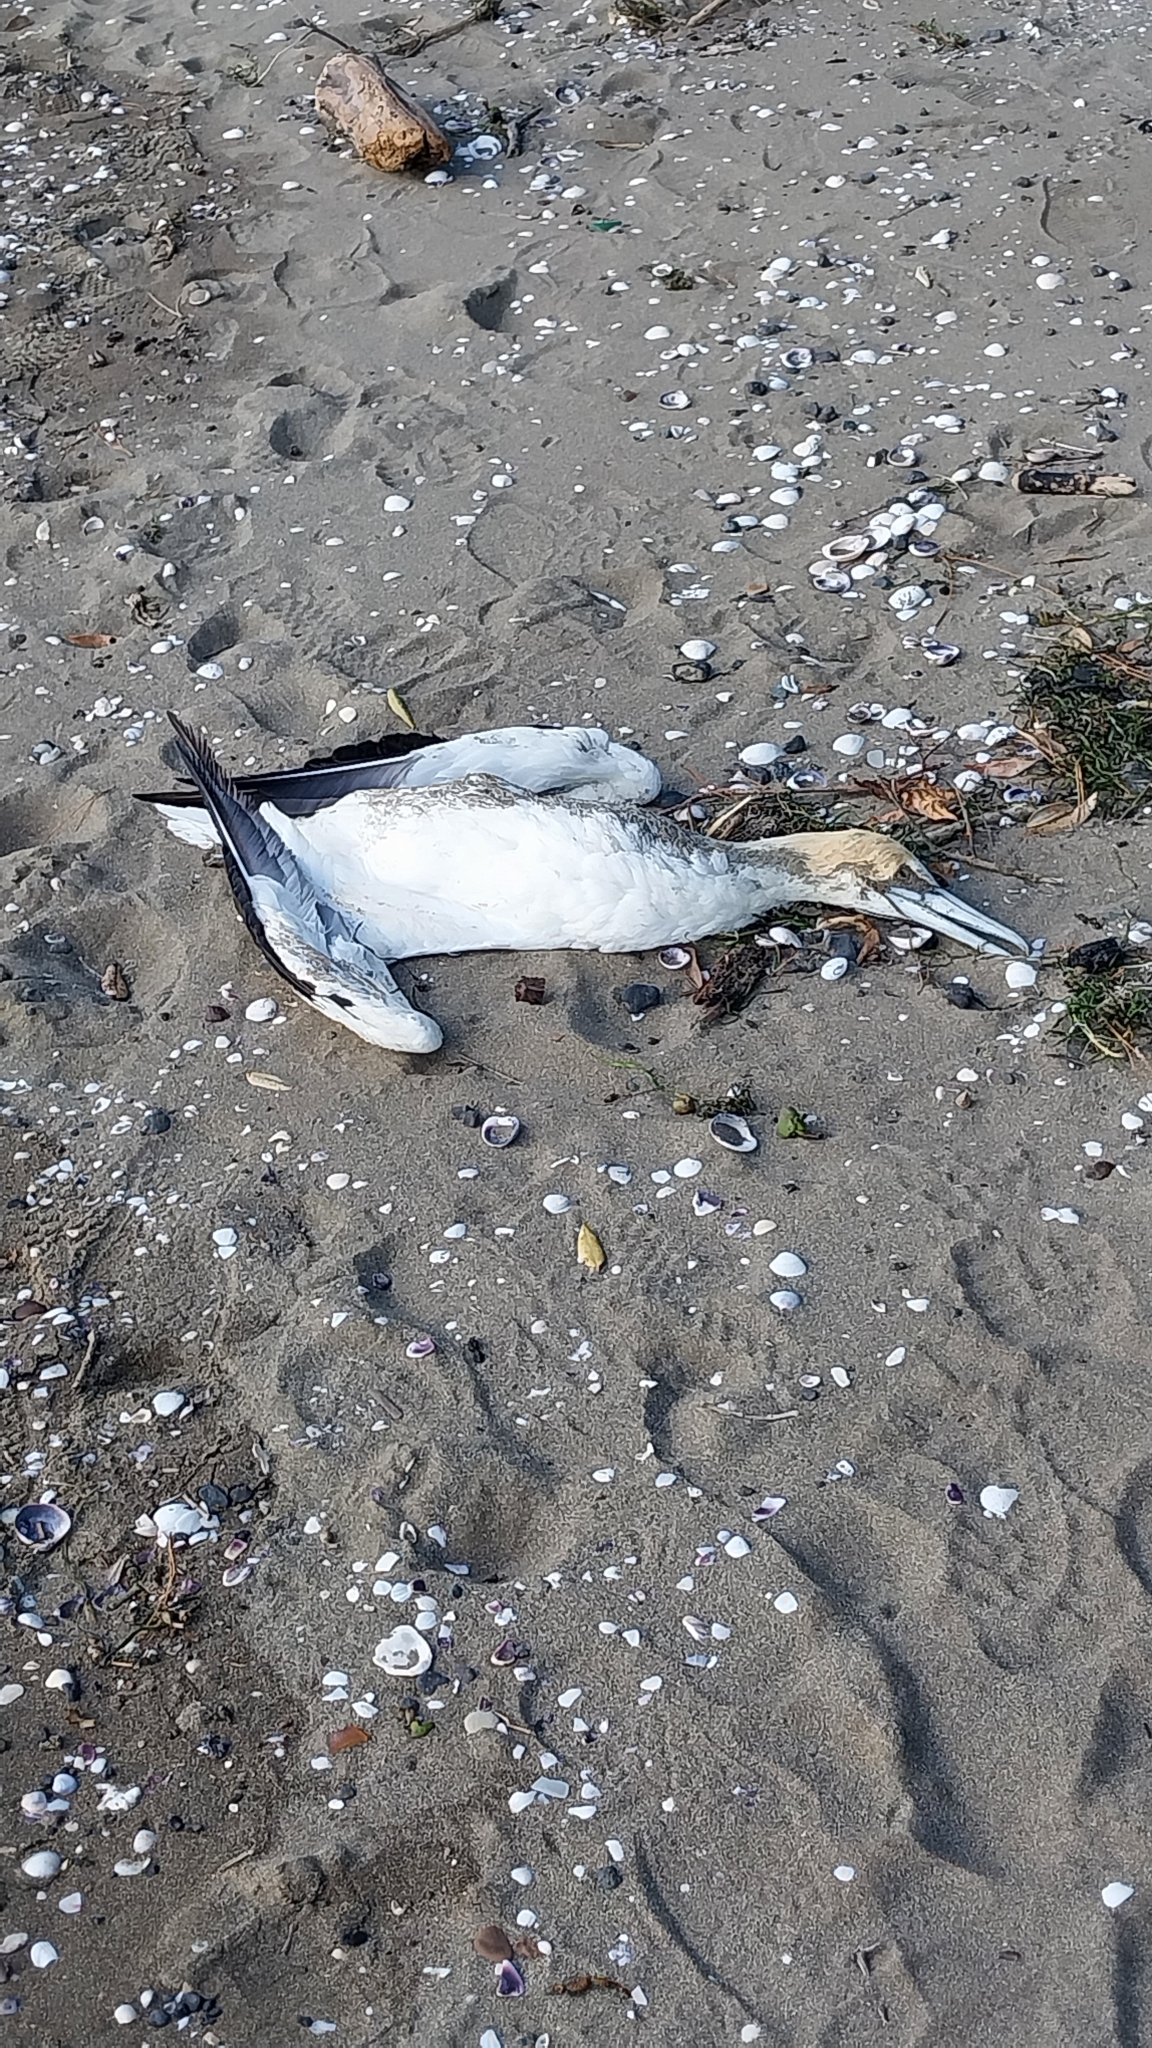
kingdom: Animalia
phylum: Chordata
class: Aves
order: Suliformes
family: Sulidae
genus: Morus
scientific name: Morus serrator
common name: Australasian gannet
